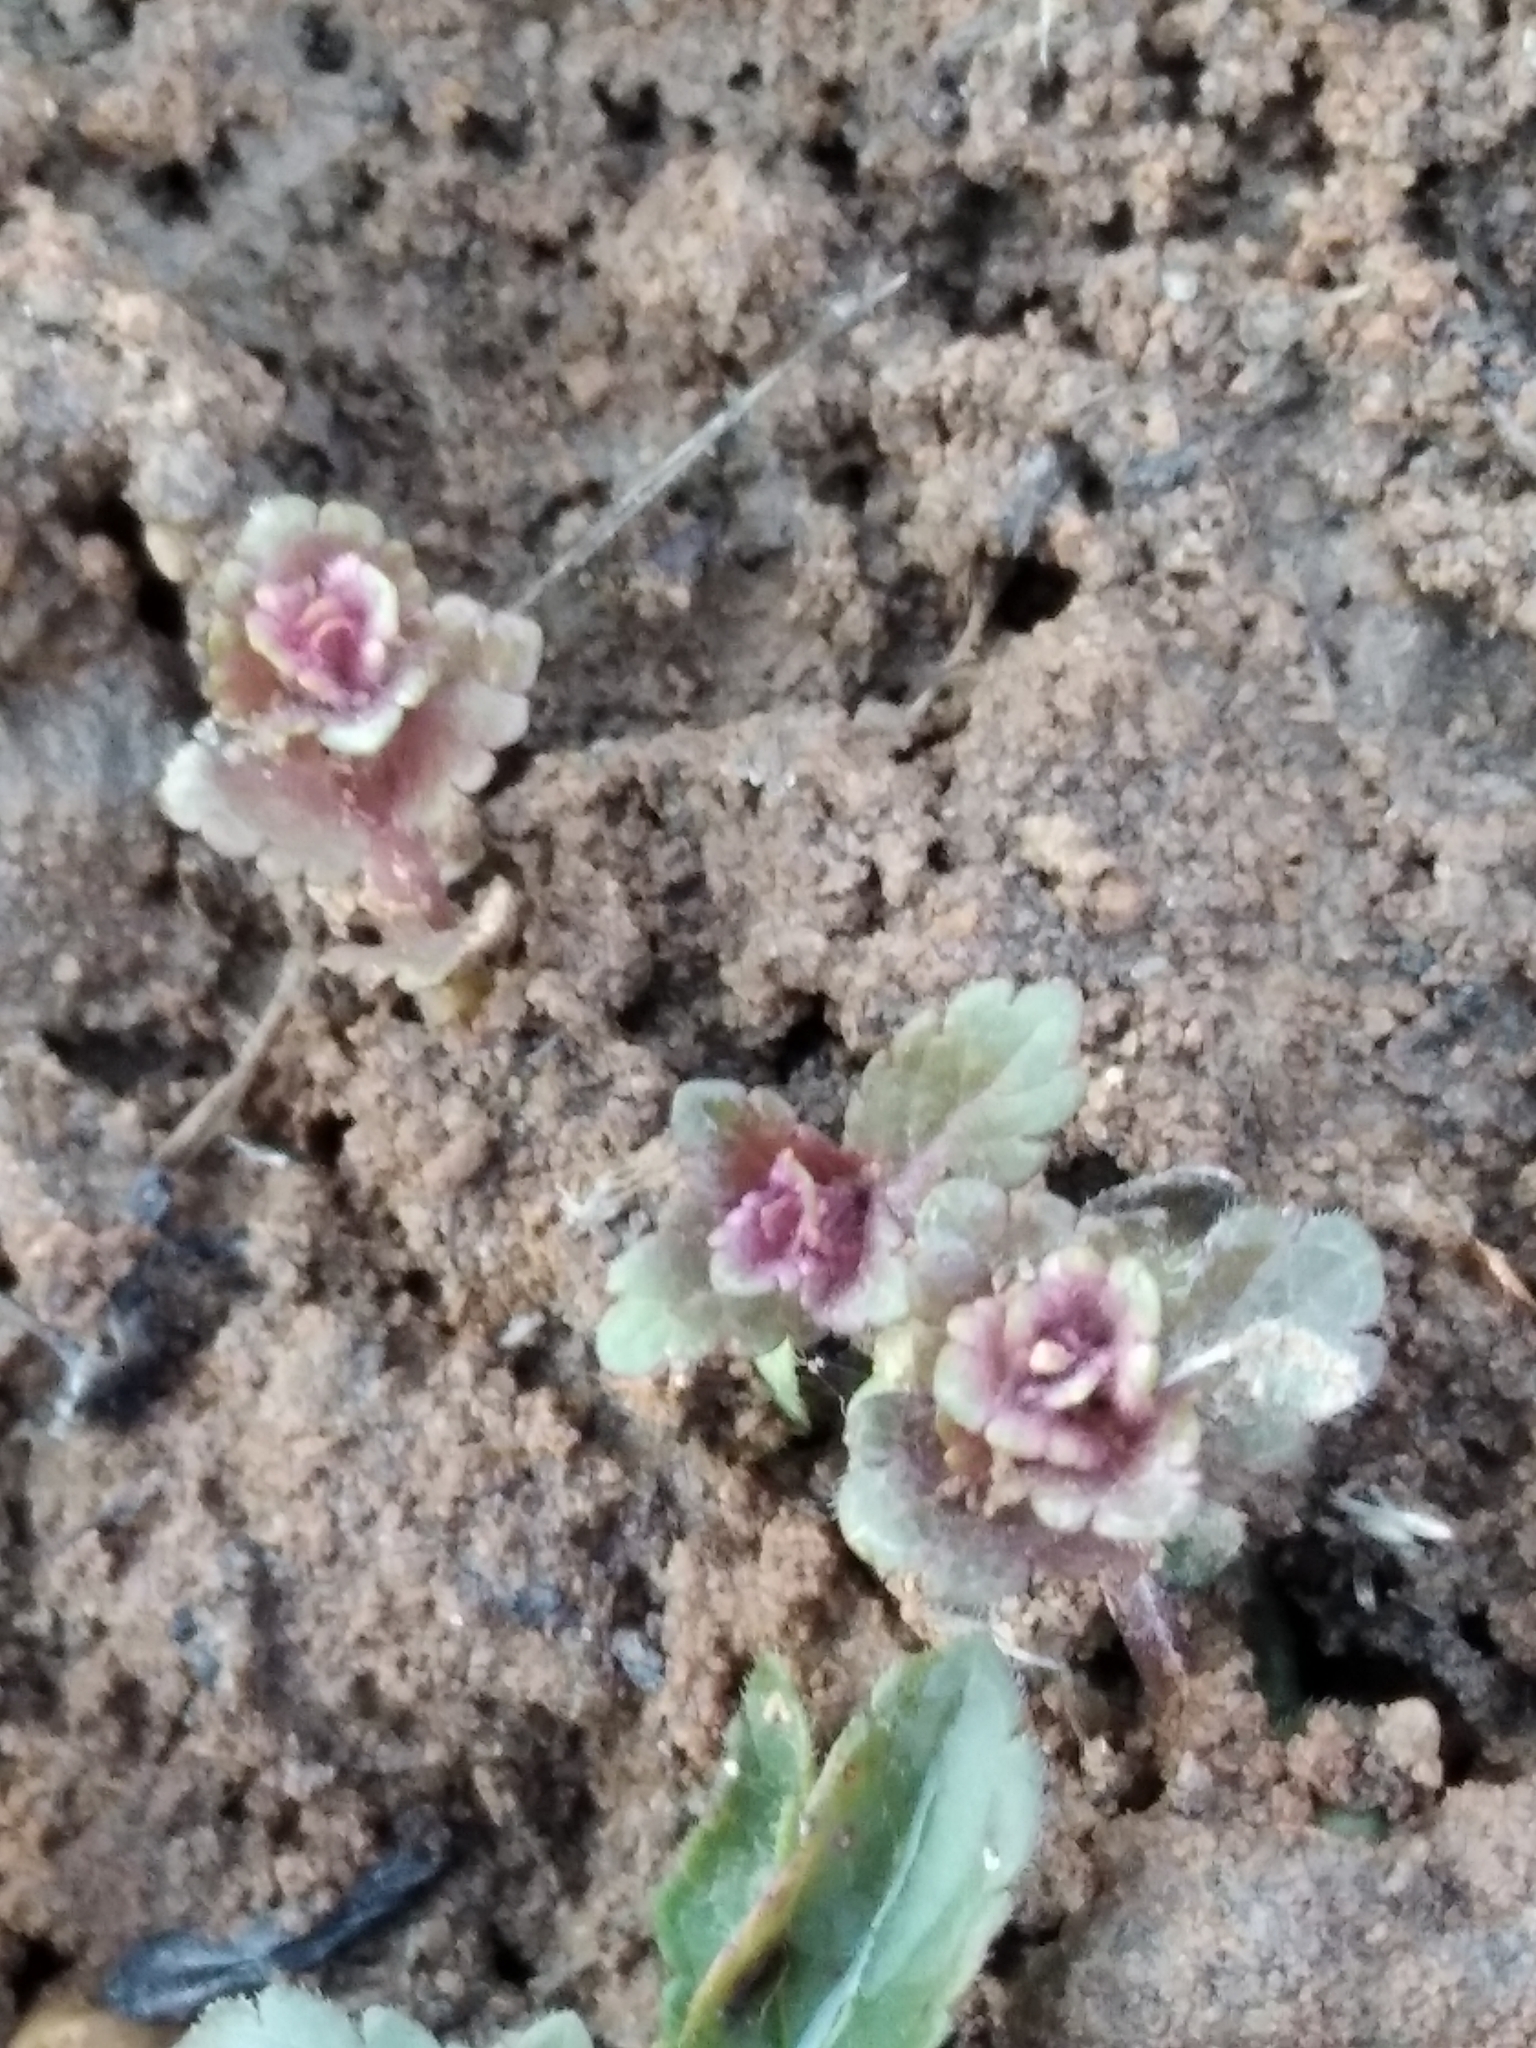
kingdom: Plantae
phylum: Tracheophyta
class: Magnoliopsida
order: Lamiales
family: Plantaginaceae
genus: Veronica
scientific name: Veronica chamaedrys
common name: Germander speedwell
